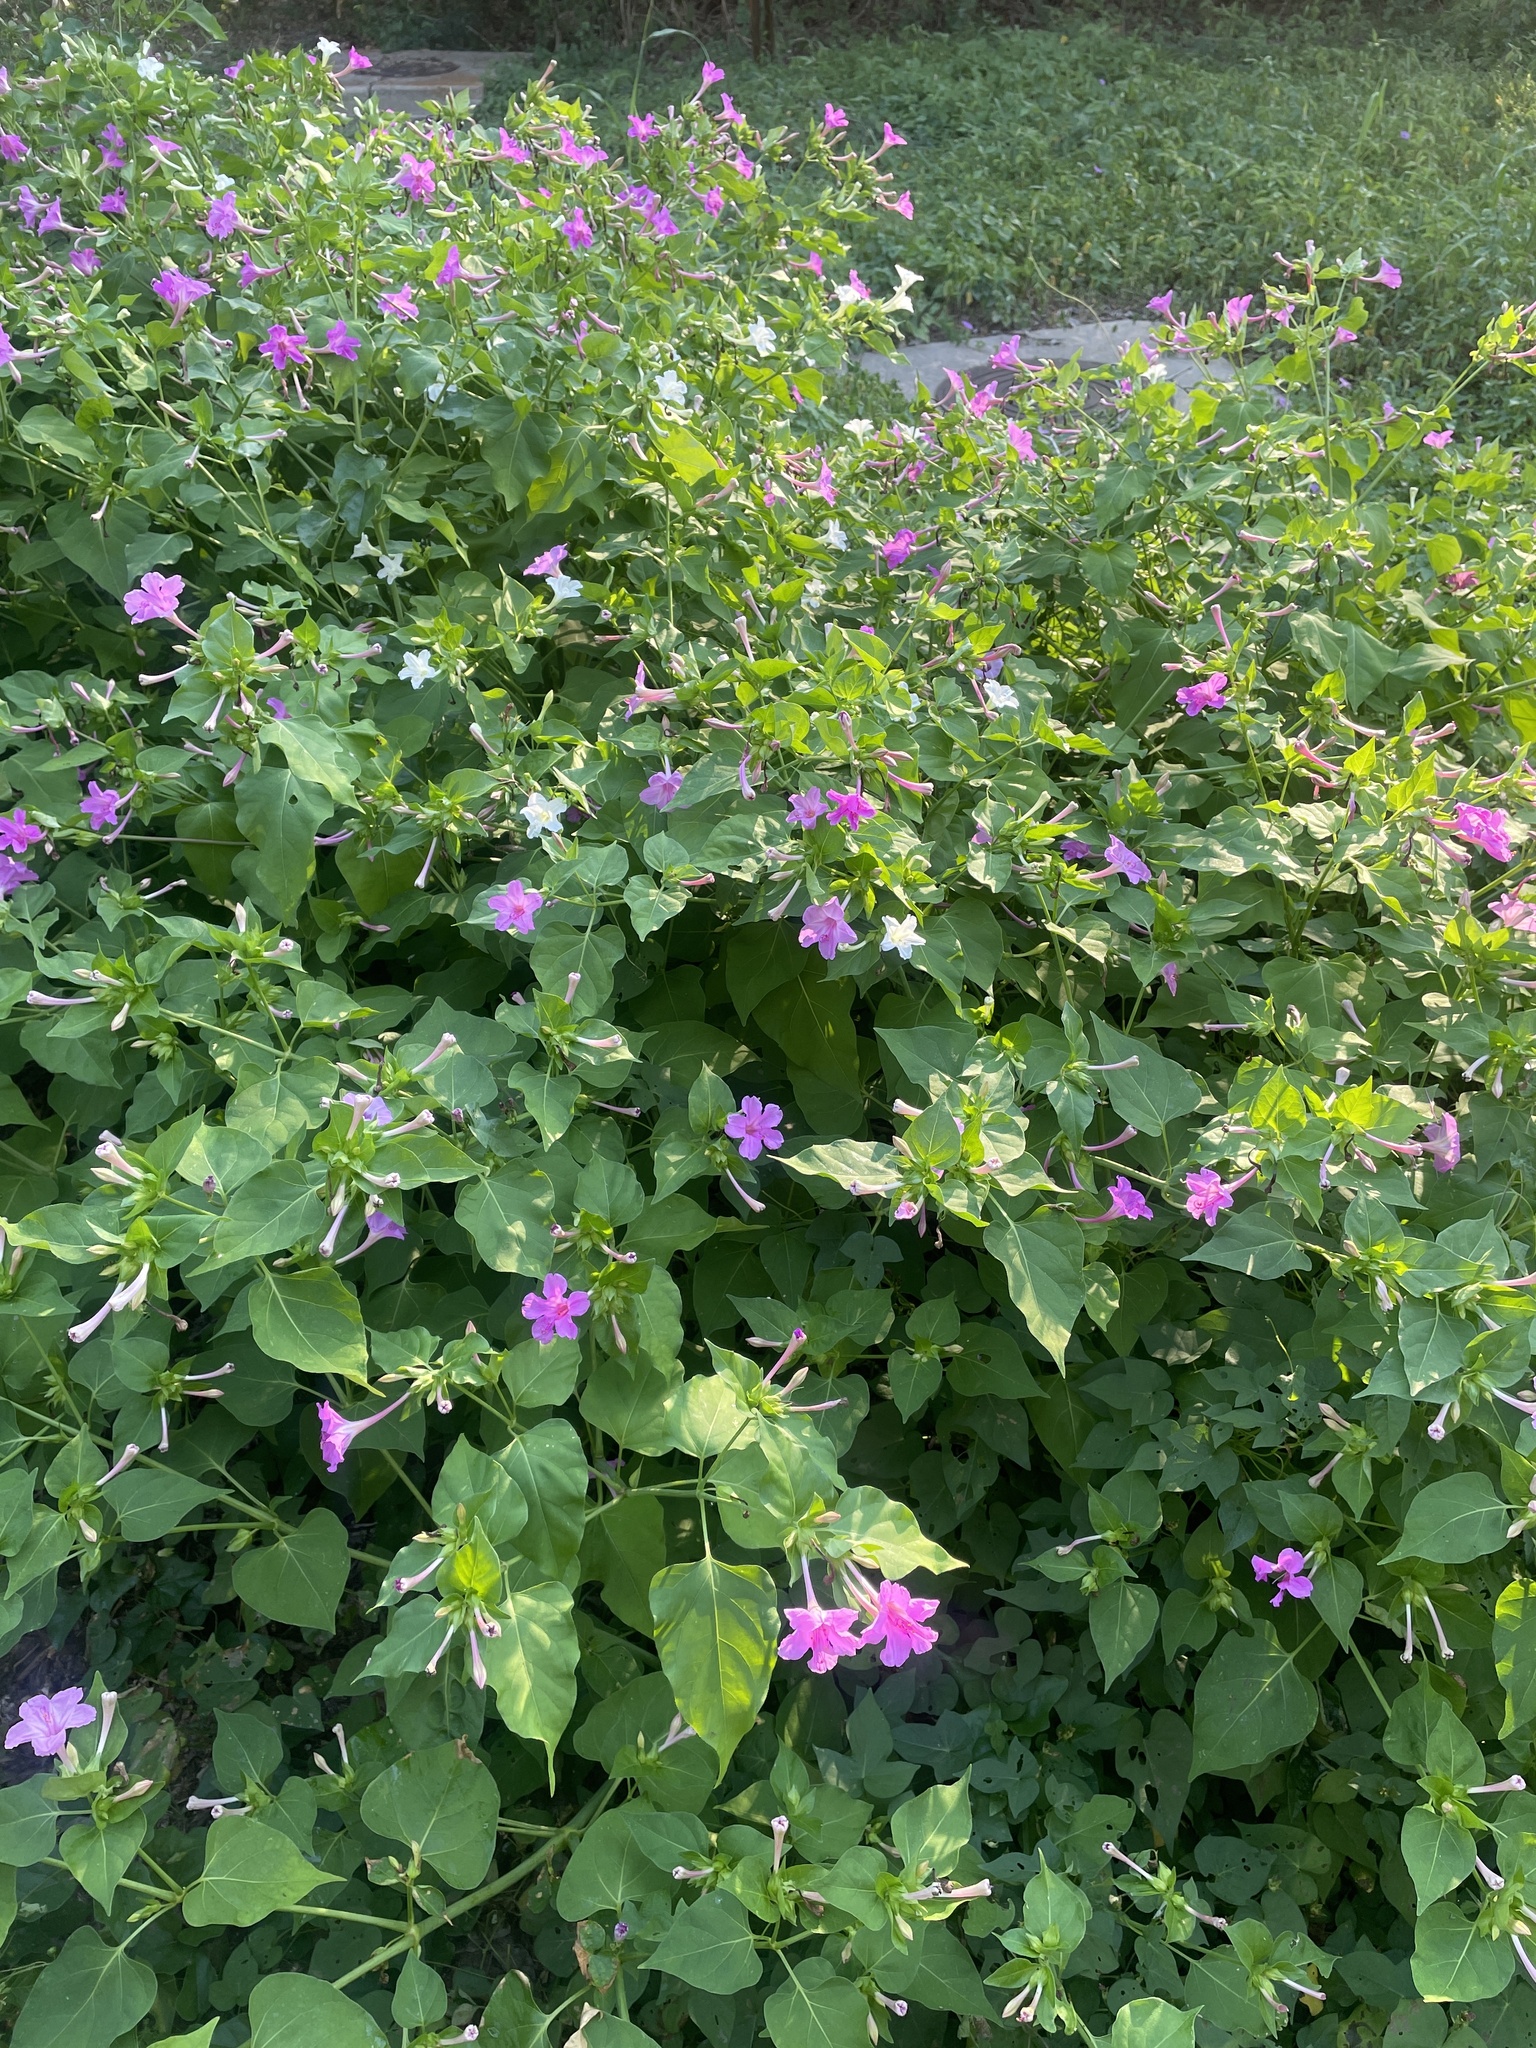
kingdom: Plantae
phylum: Tracheophyta
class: Magnoliopsida
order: Caryophyllales
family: Nyctaginaceae
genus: Mirabilis
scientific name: Mirabilis jalapa
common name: Marvel-of-peru
